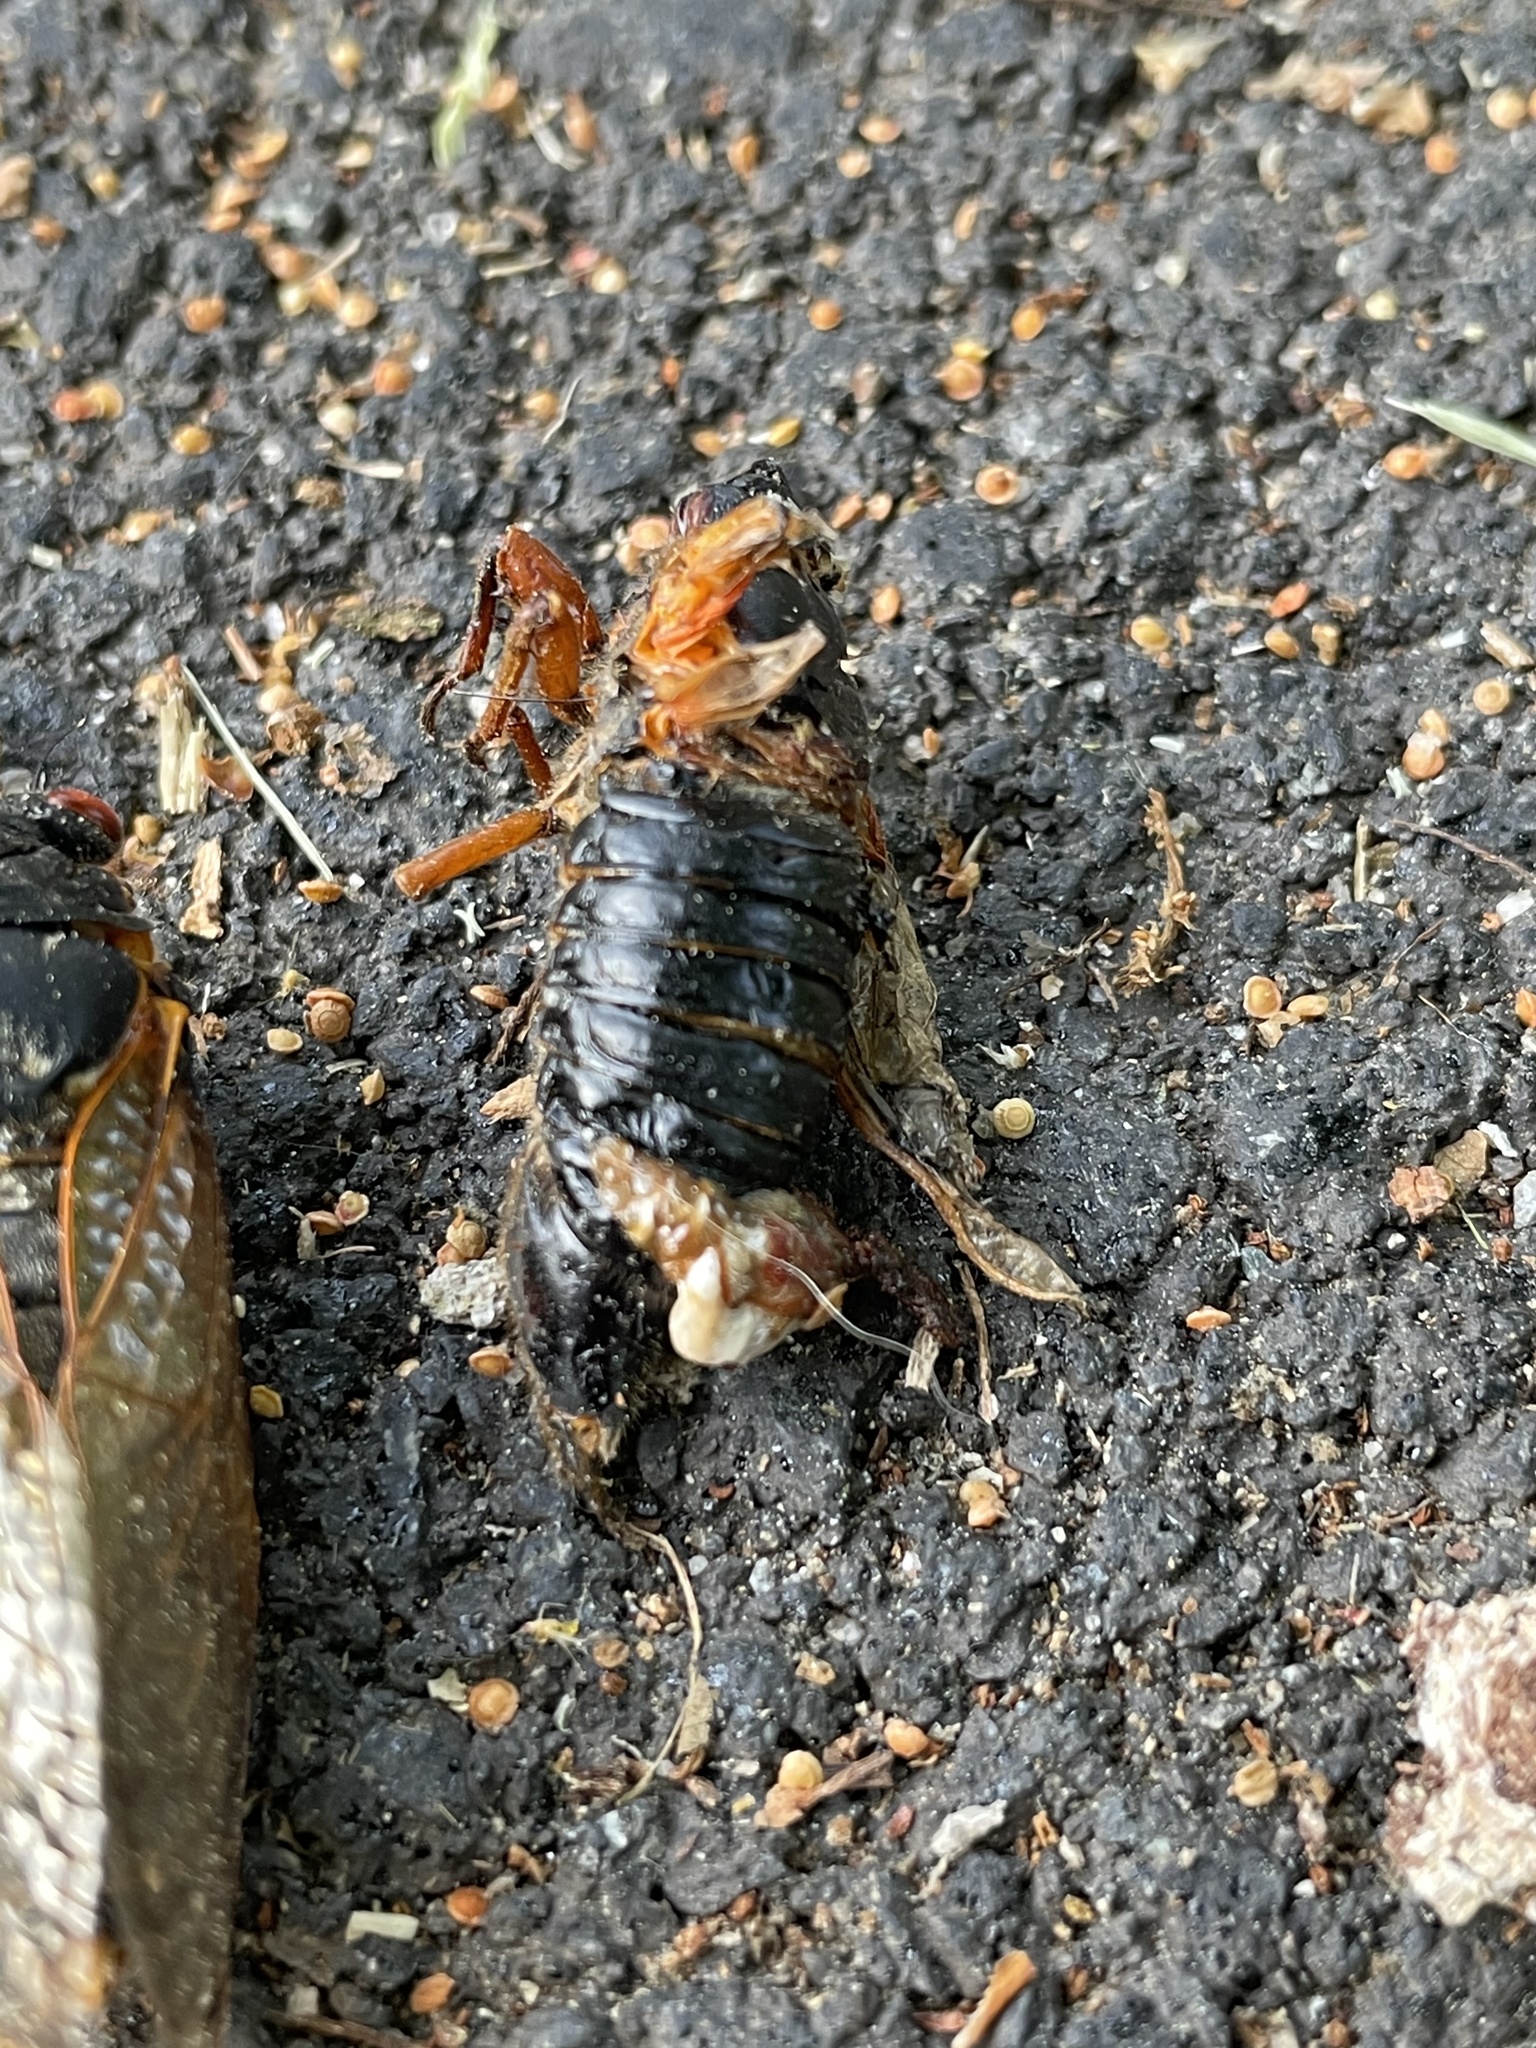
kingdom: Animalia
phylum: Arthropoda
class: Insecta
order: Hemiptera
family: Cicadidae
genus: Magicicada
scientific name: Magicicada
